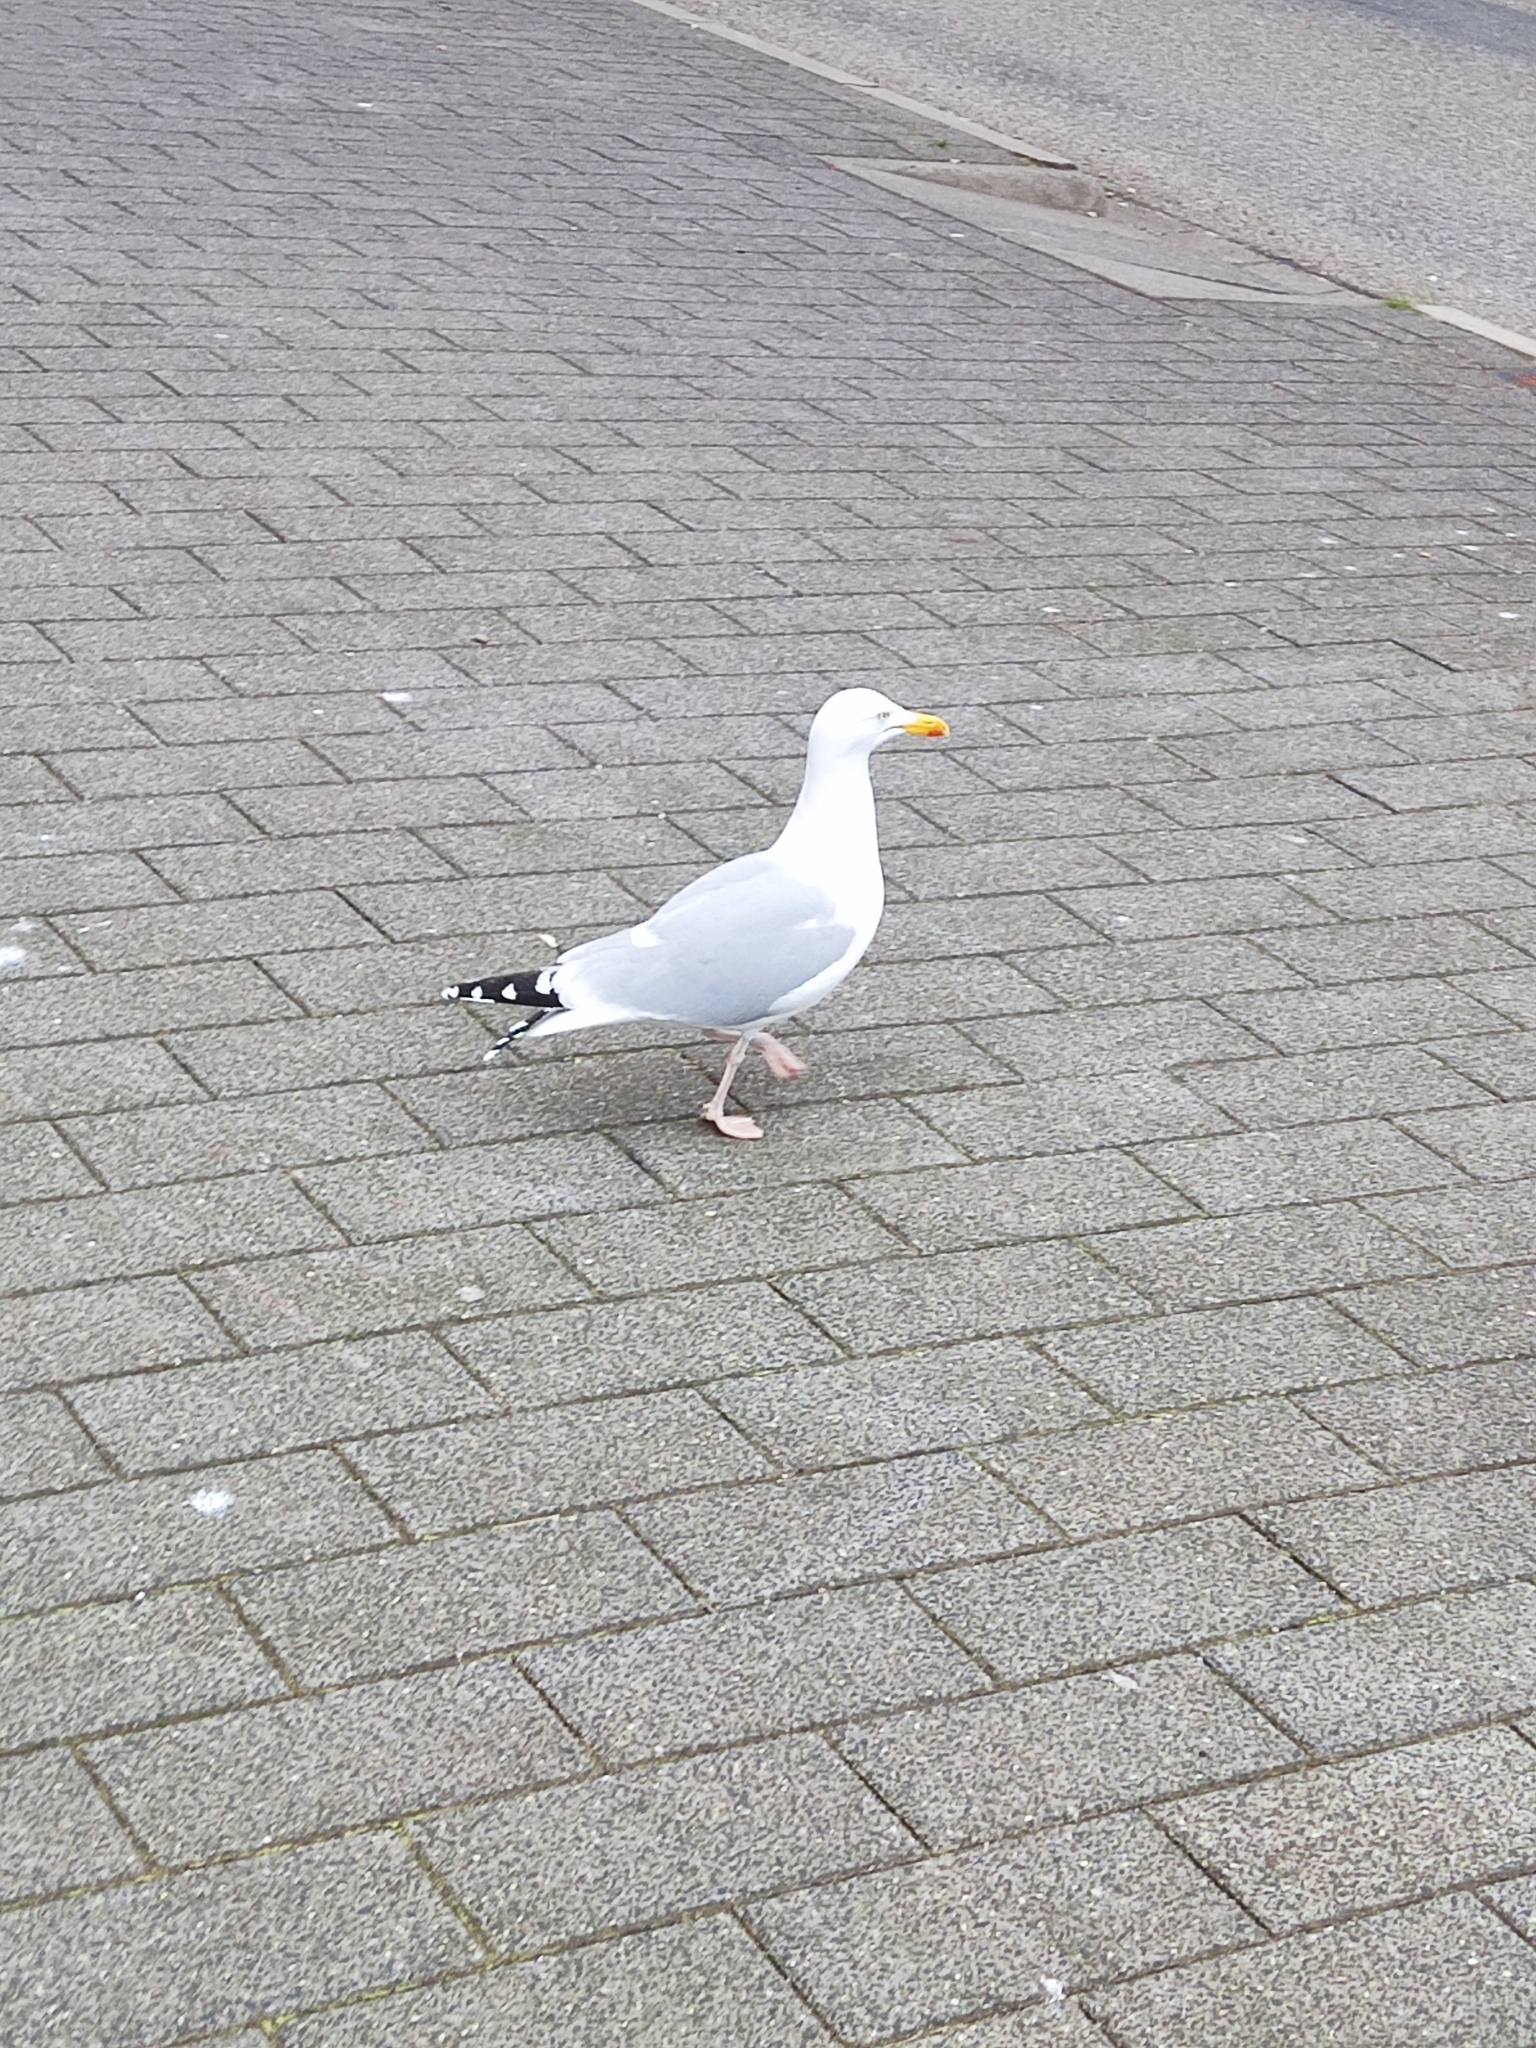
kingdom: Animalia
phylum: Chordata
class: Aves
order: Charadriiformes
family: Laridae
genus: Larus
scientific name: Larus argentatus
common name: Herring gull
